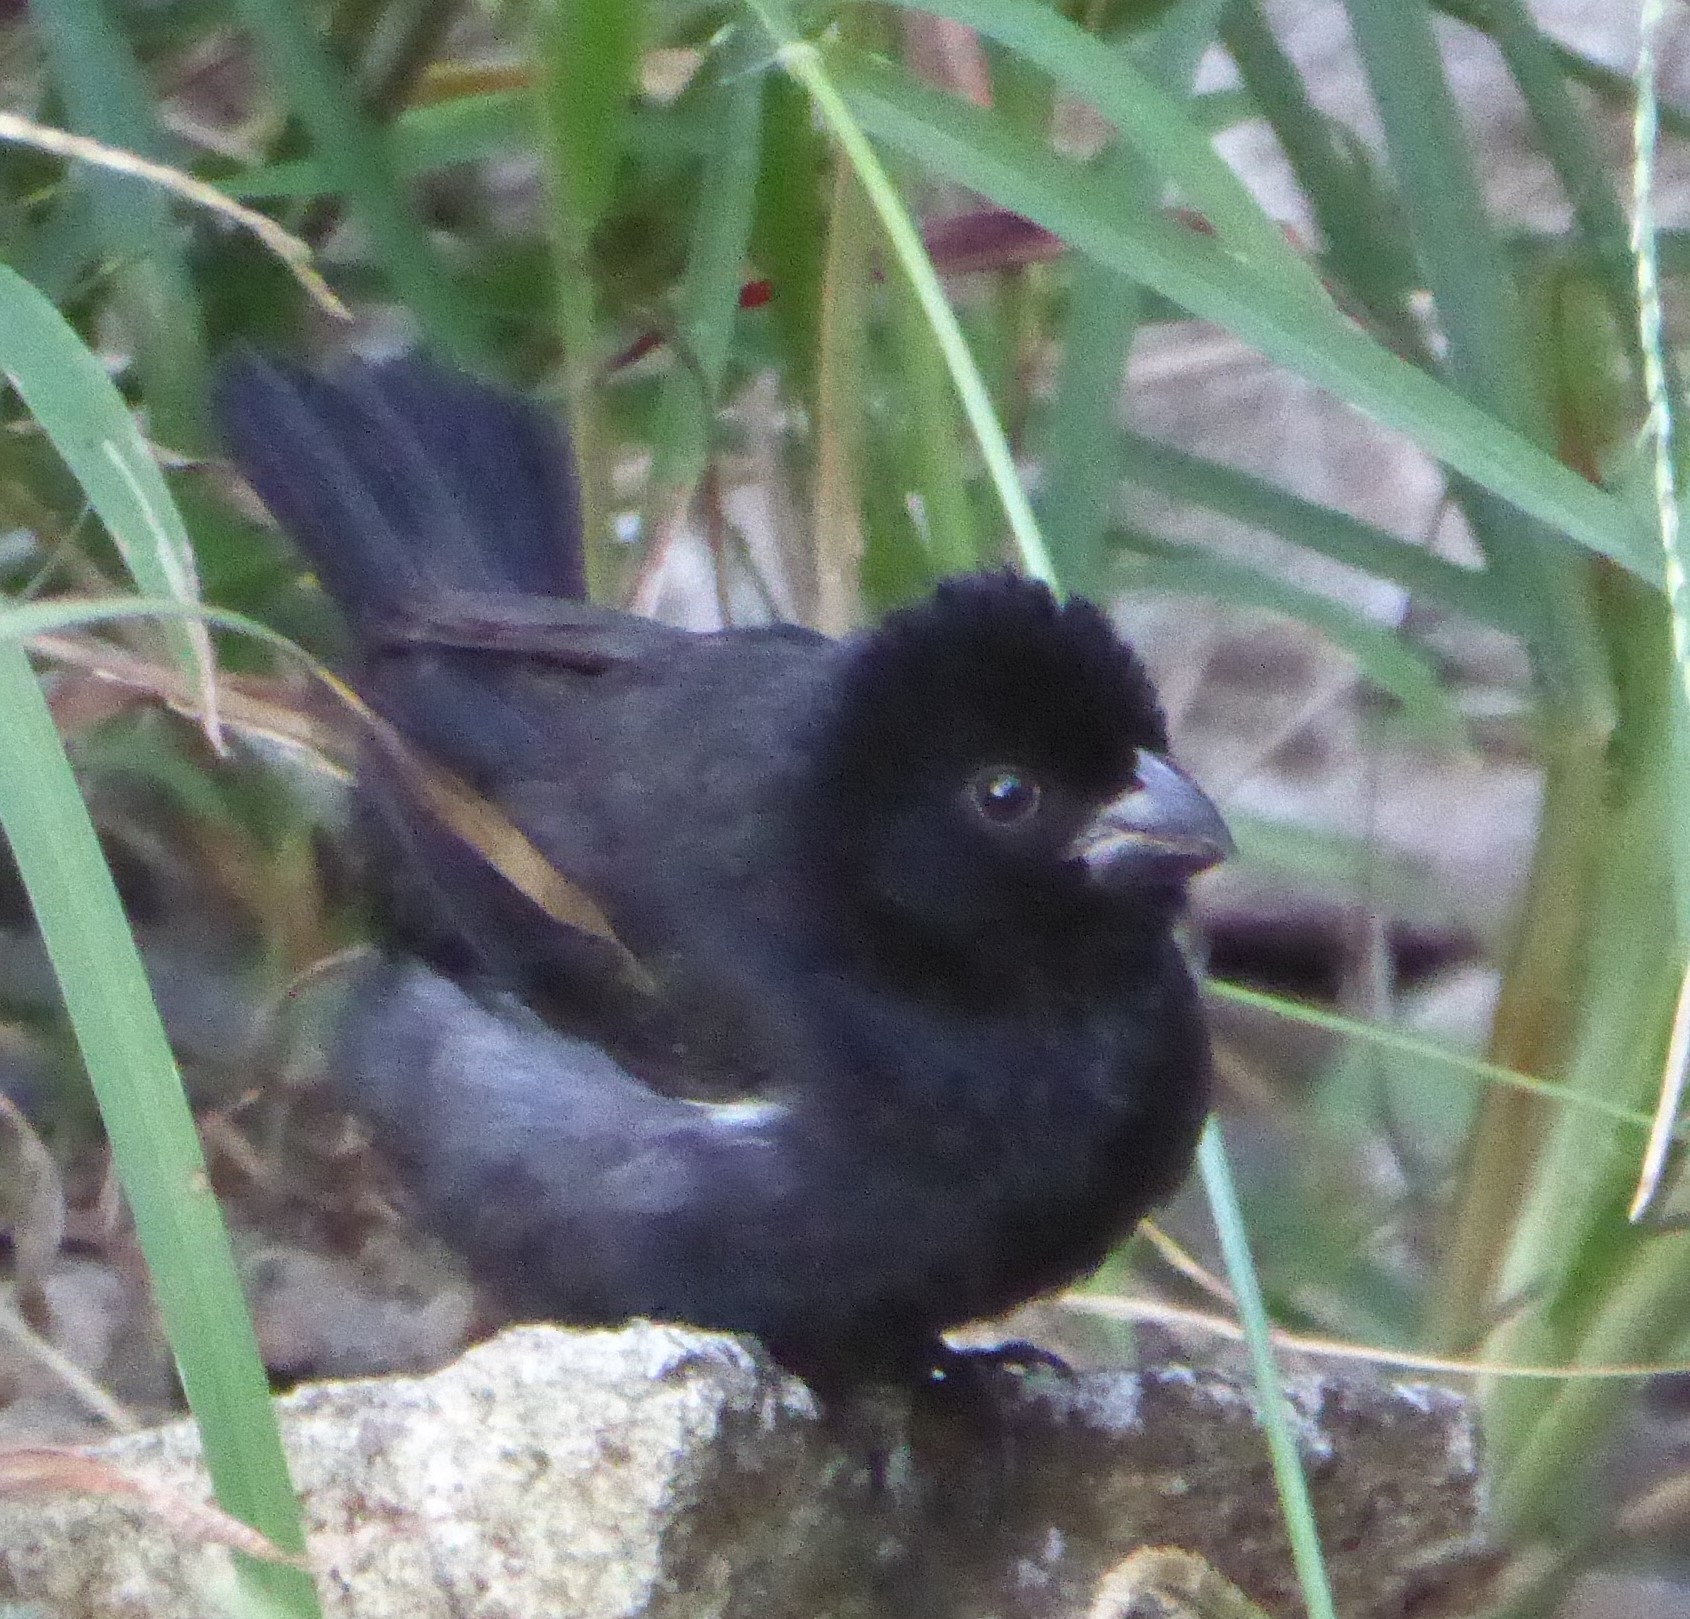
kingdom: Animalia
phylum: Chordata
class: Aves
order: Passeriformes
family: Thraupidae
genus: Sporophila
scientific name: Sporophila corvina
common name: Variable seedeater
